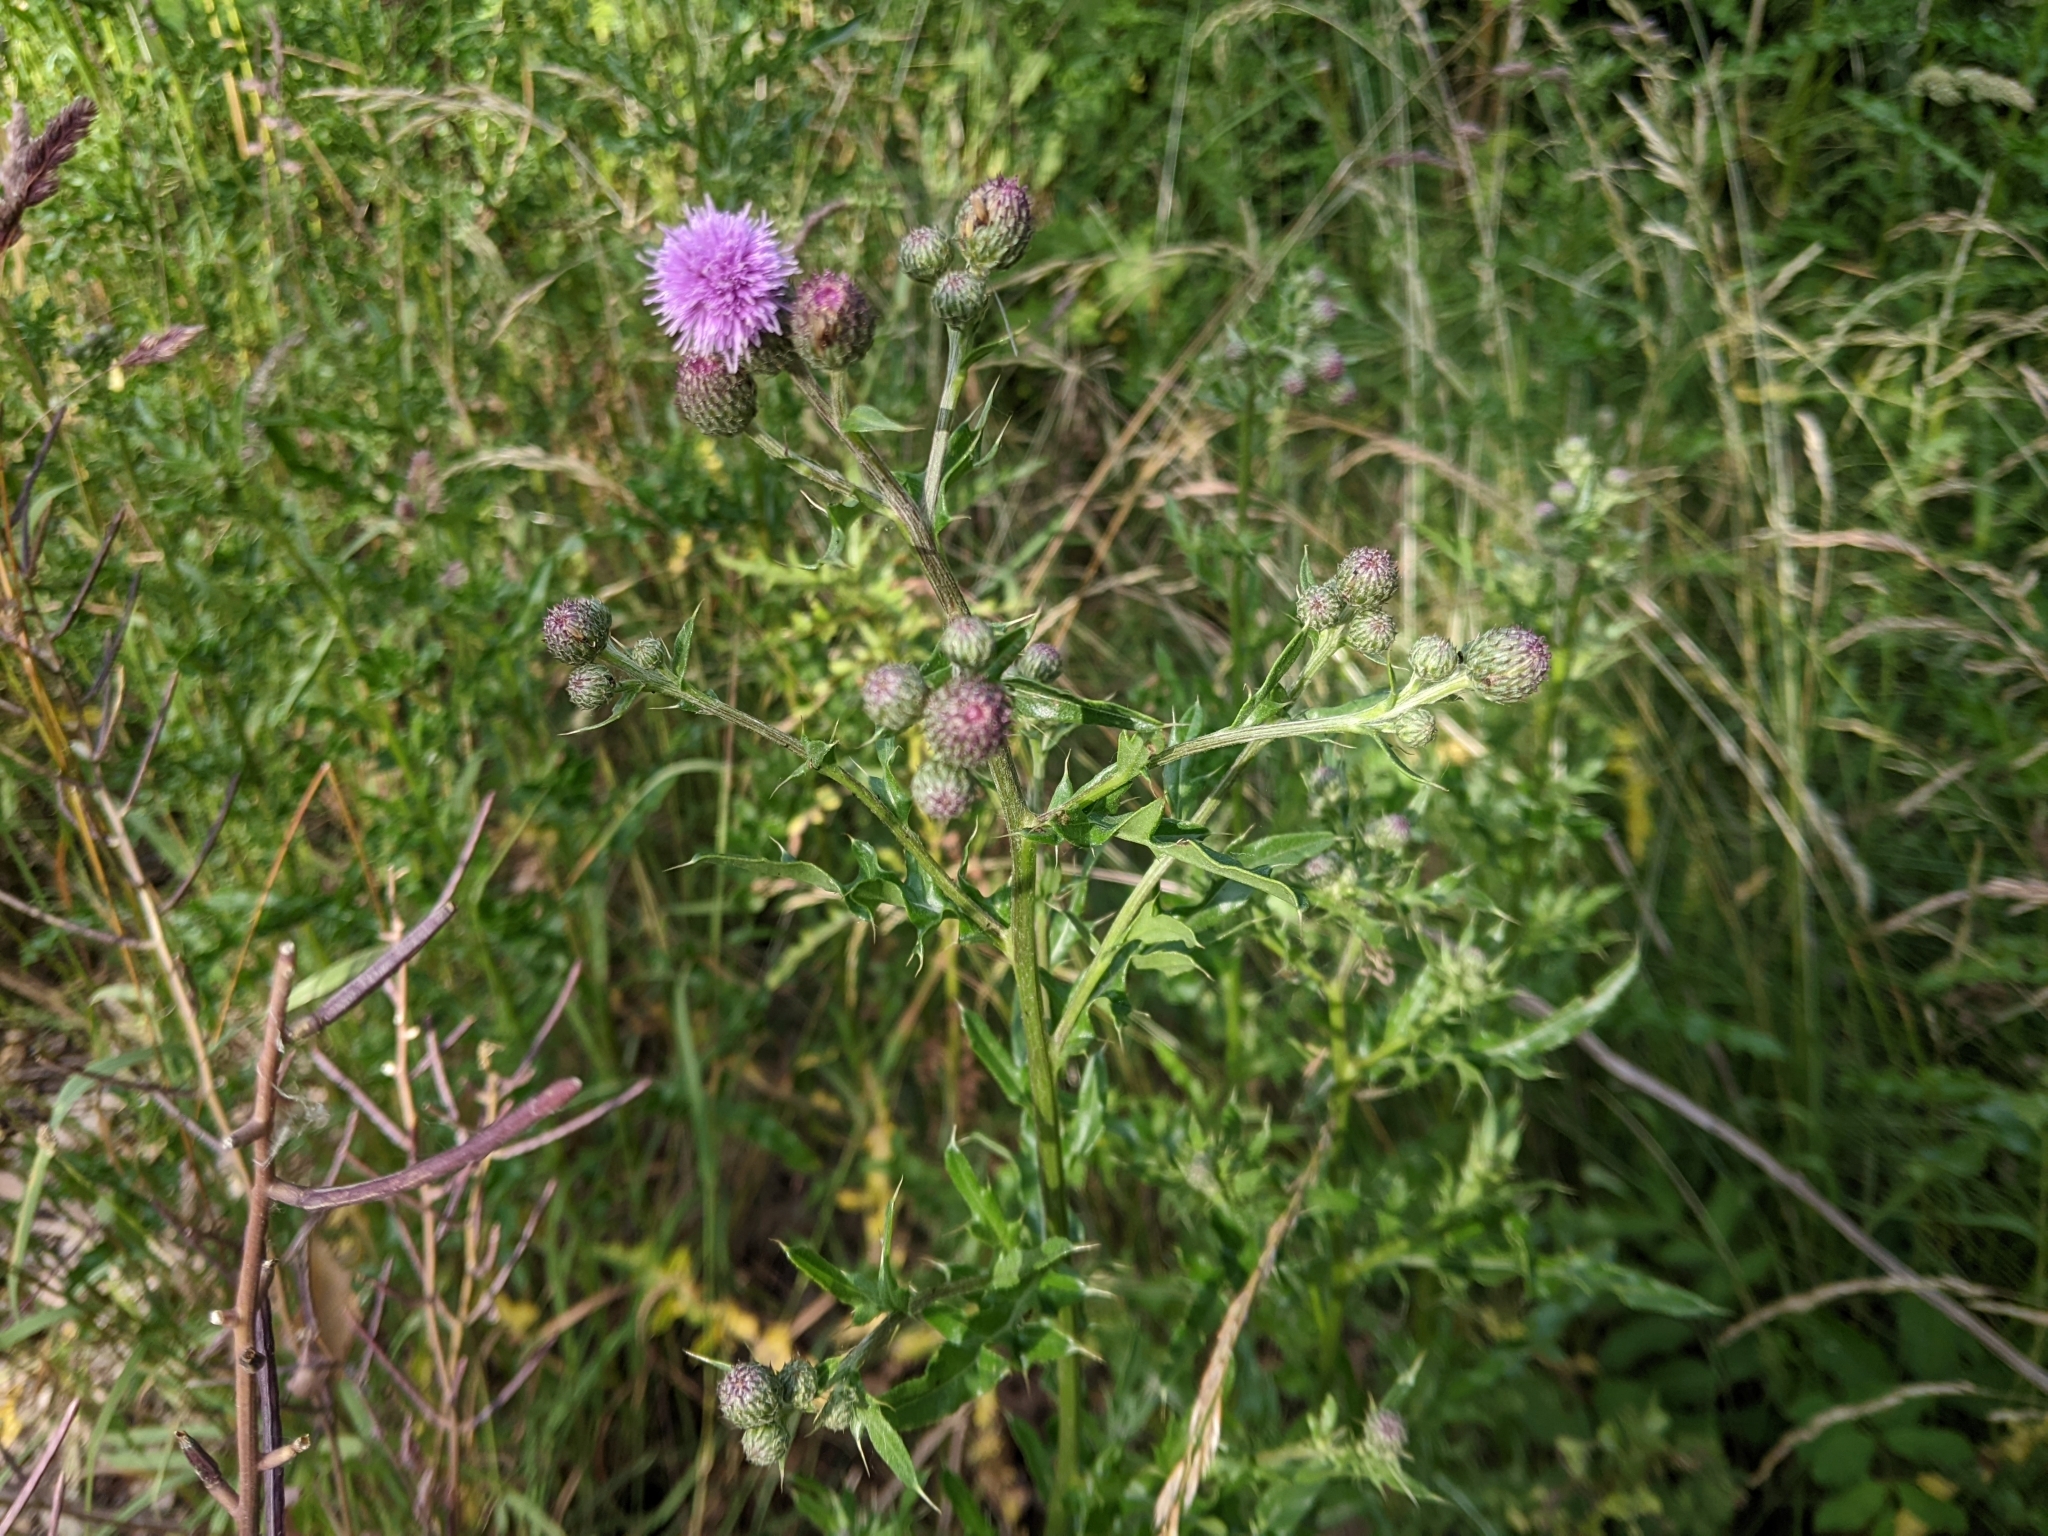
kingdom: Plantae
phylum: Tracheophyta
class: Magnoliopsida
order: Asterales
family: Asteraceae
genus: Cirsium
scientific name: Cirsium arvense
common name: Creeping thistle
